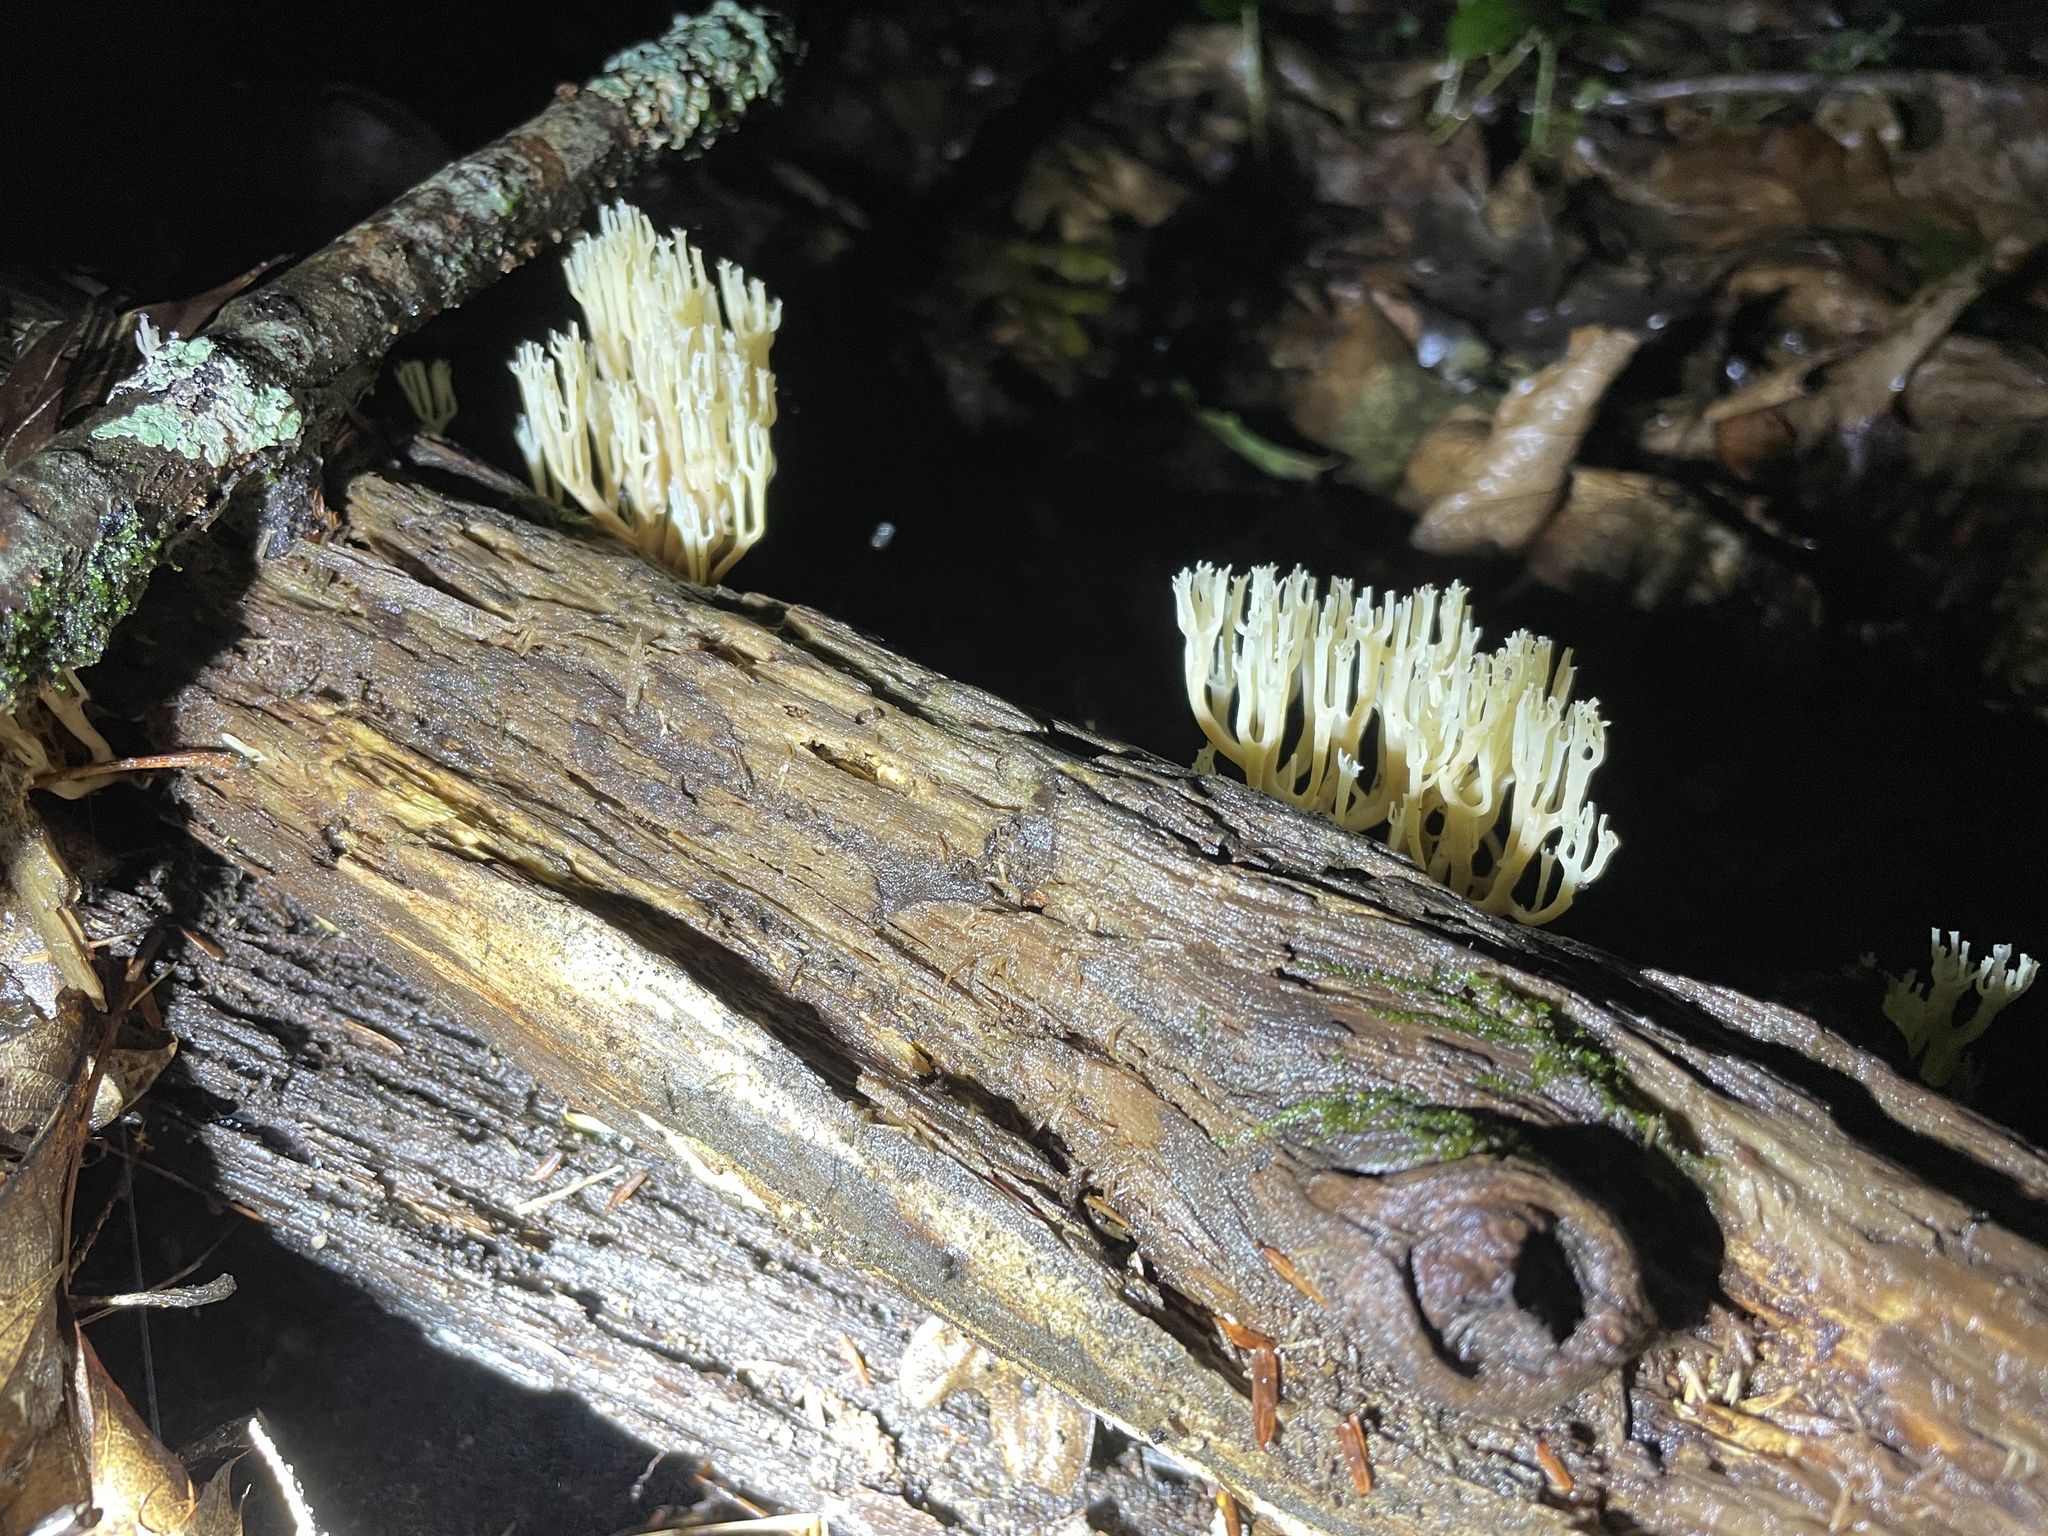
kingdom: Fungi
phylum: Basidiomycota
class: Agaricomycetes
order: Russulales
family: Auriscalpiaceae
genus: Artomyces
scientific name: Artomyces pyxidatus
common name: Crown-tipped coral fungus
